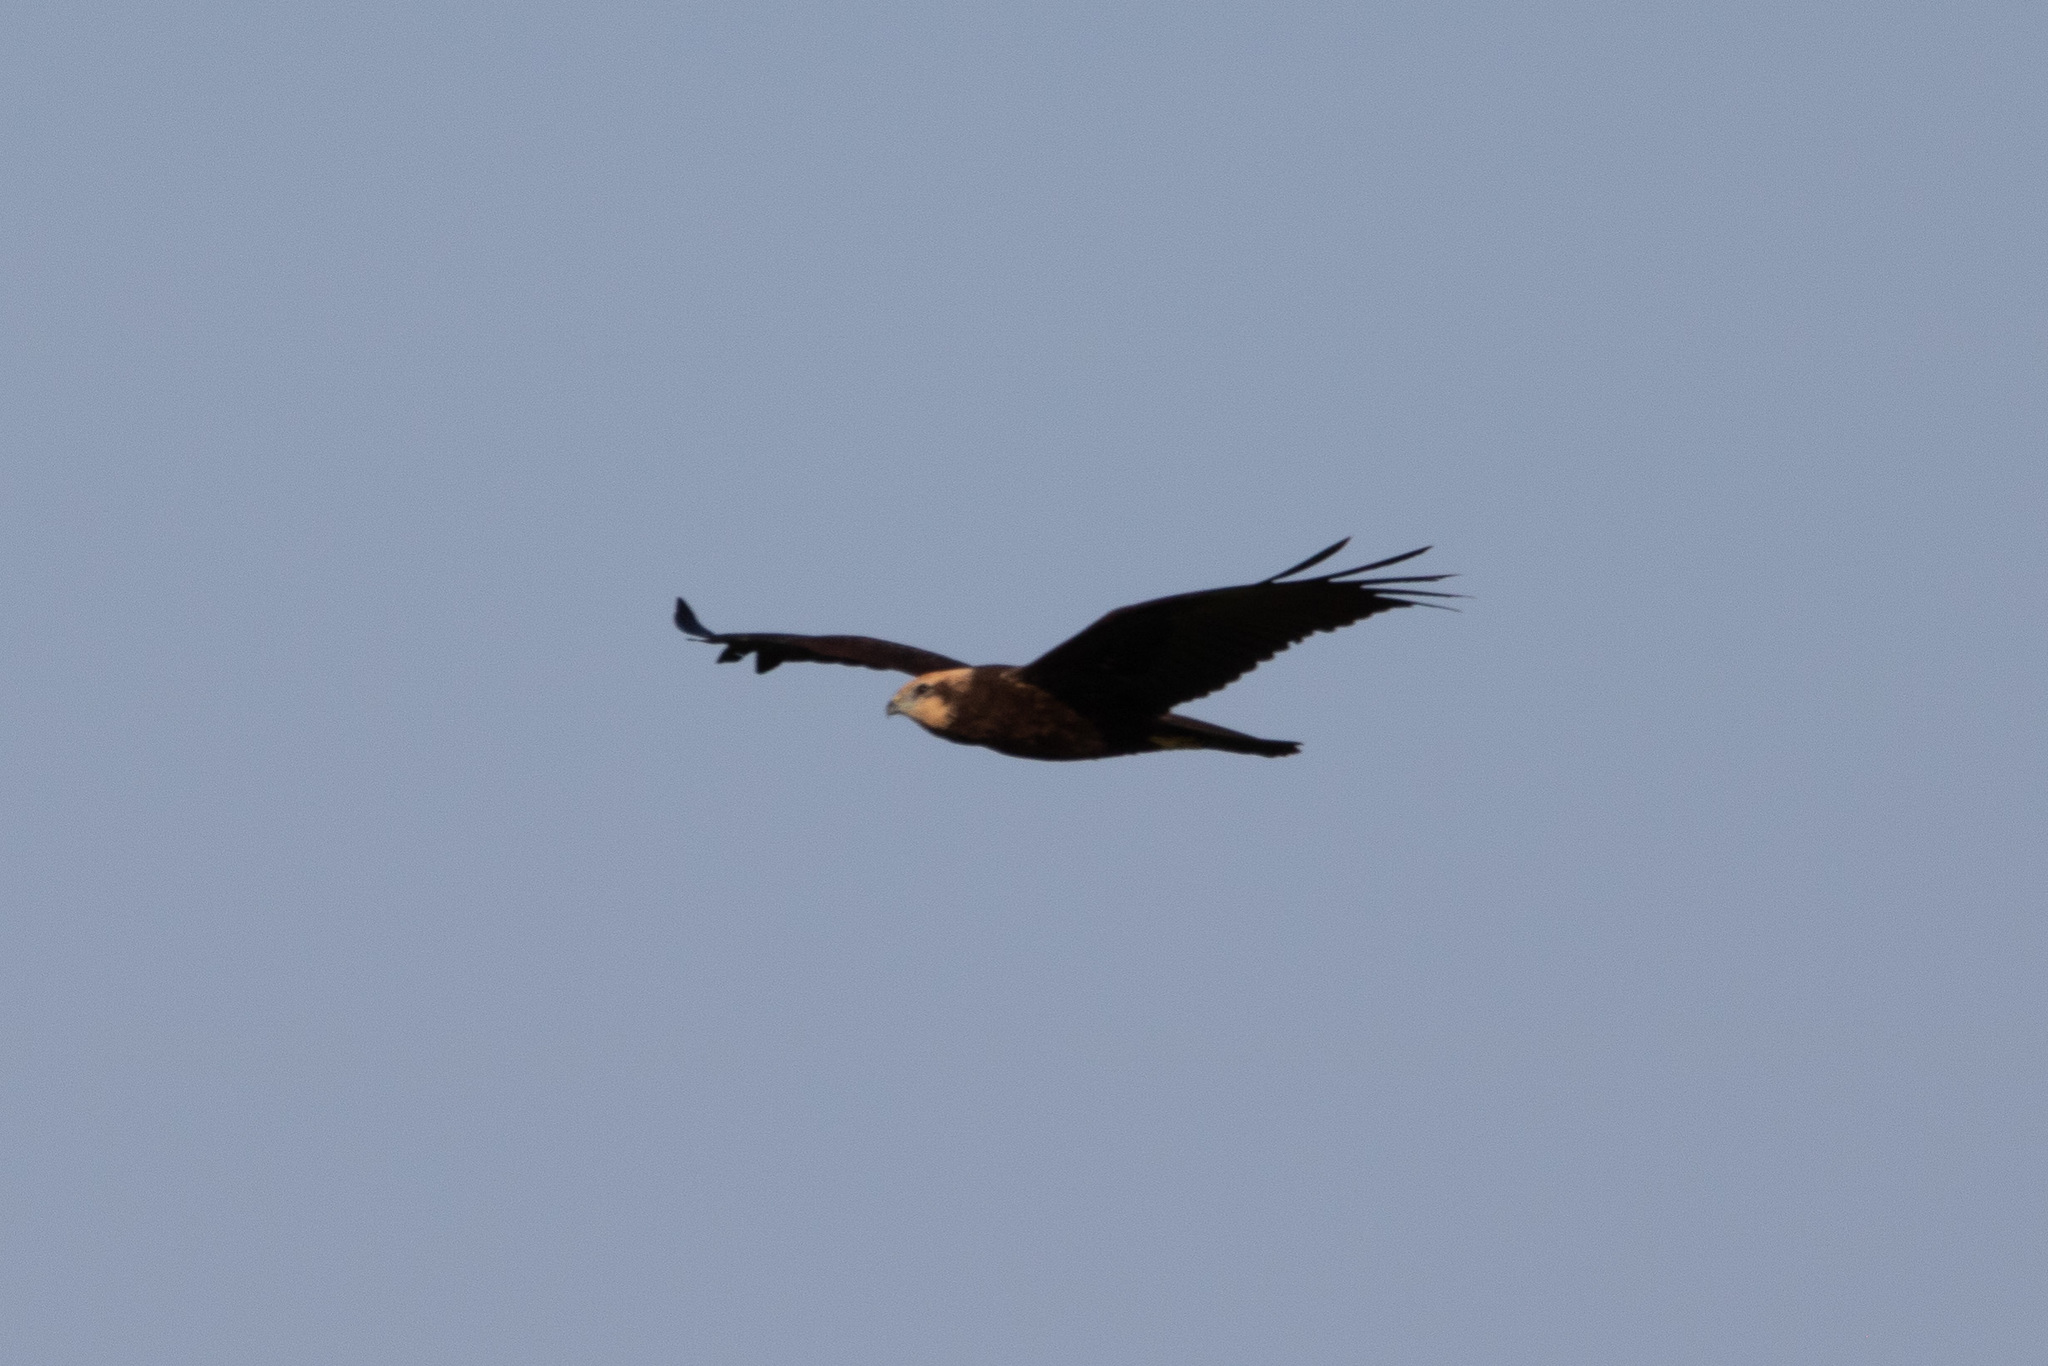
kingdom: Animalia
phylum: Chordata
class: Aves
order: Accipitriformes
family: Accipitridae
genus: Circus
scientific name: Circus aeruginosus
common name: Western marsh harrier
